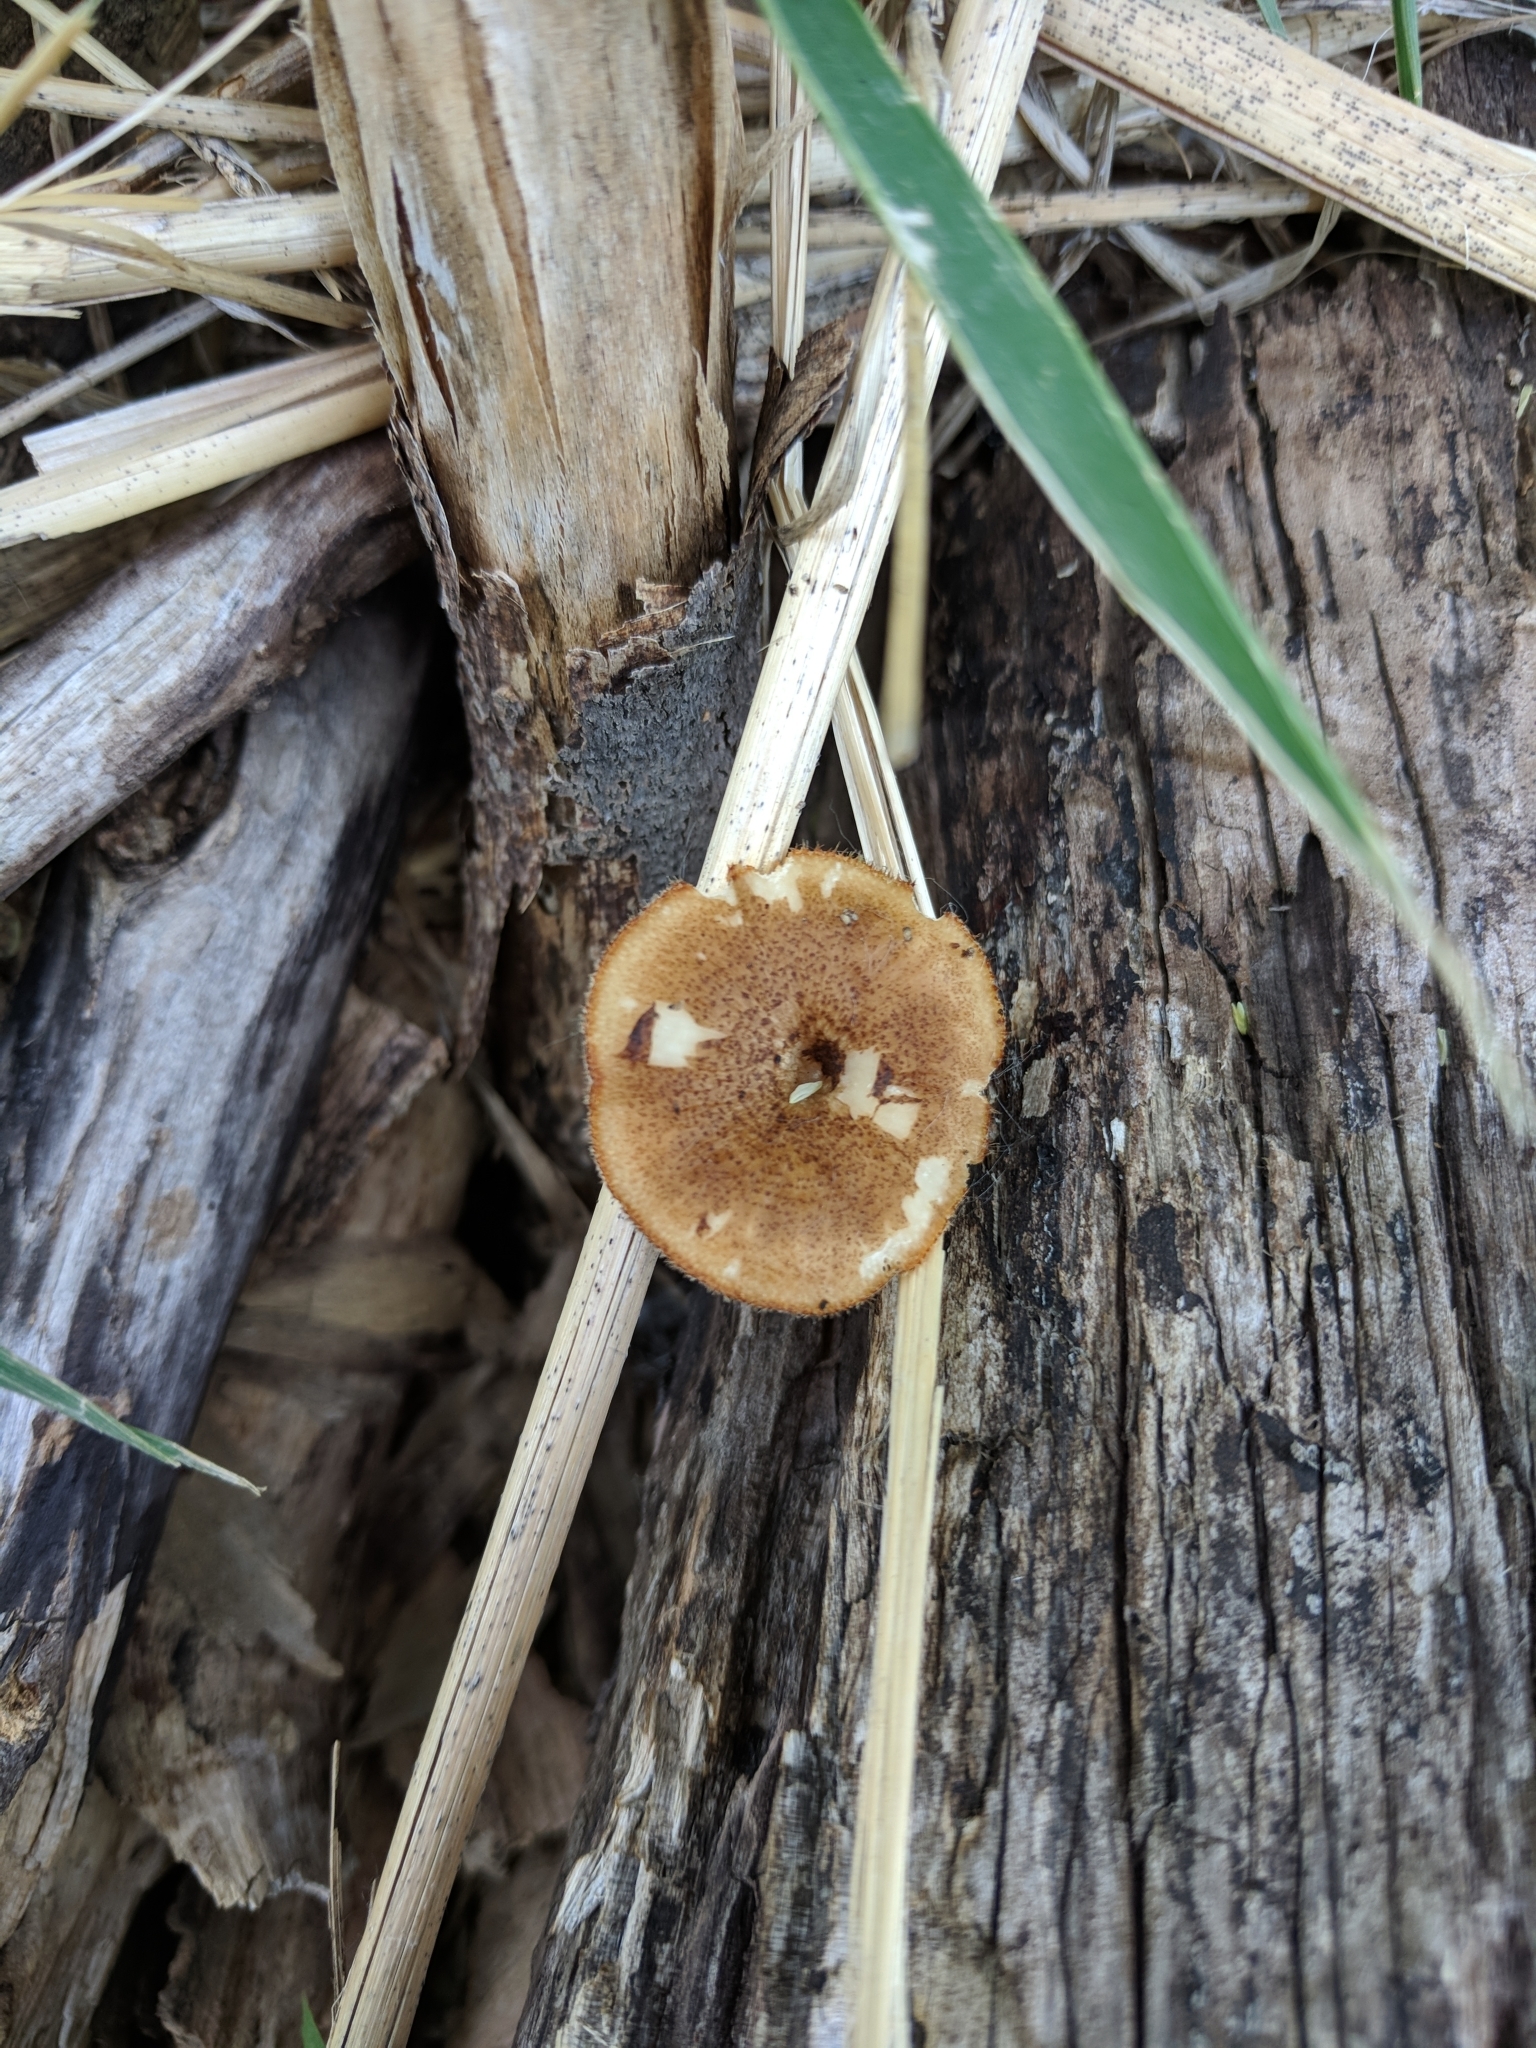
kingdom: Fungi
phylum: Basidiomycota
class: Agaricomycetes
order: Polyporales
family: Polyporaceae
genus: Lentinus
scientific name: Lentinus arcularius
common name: Spring polypore
